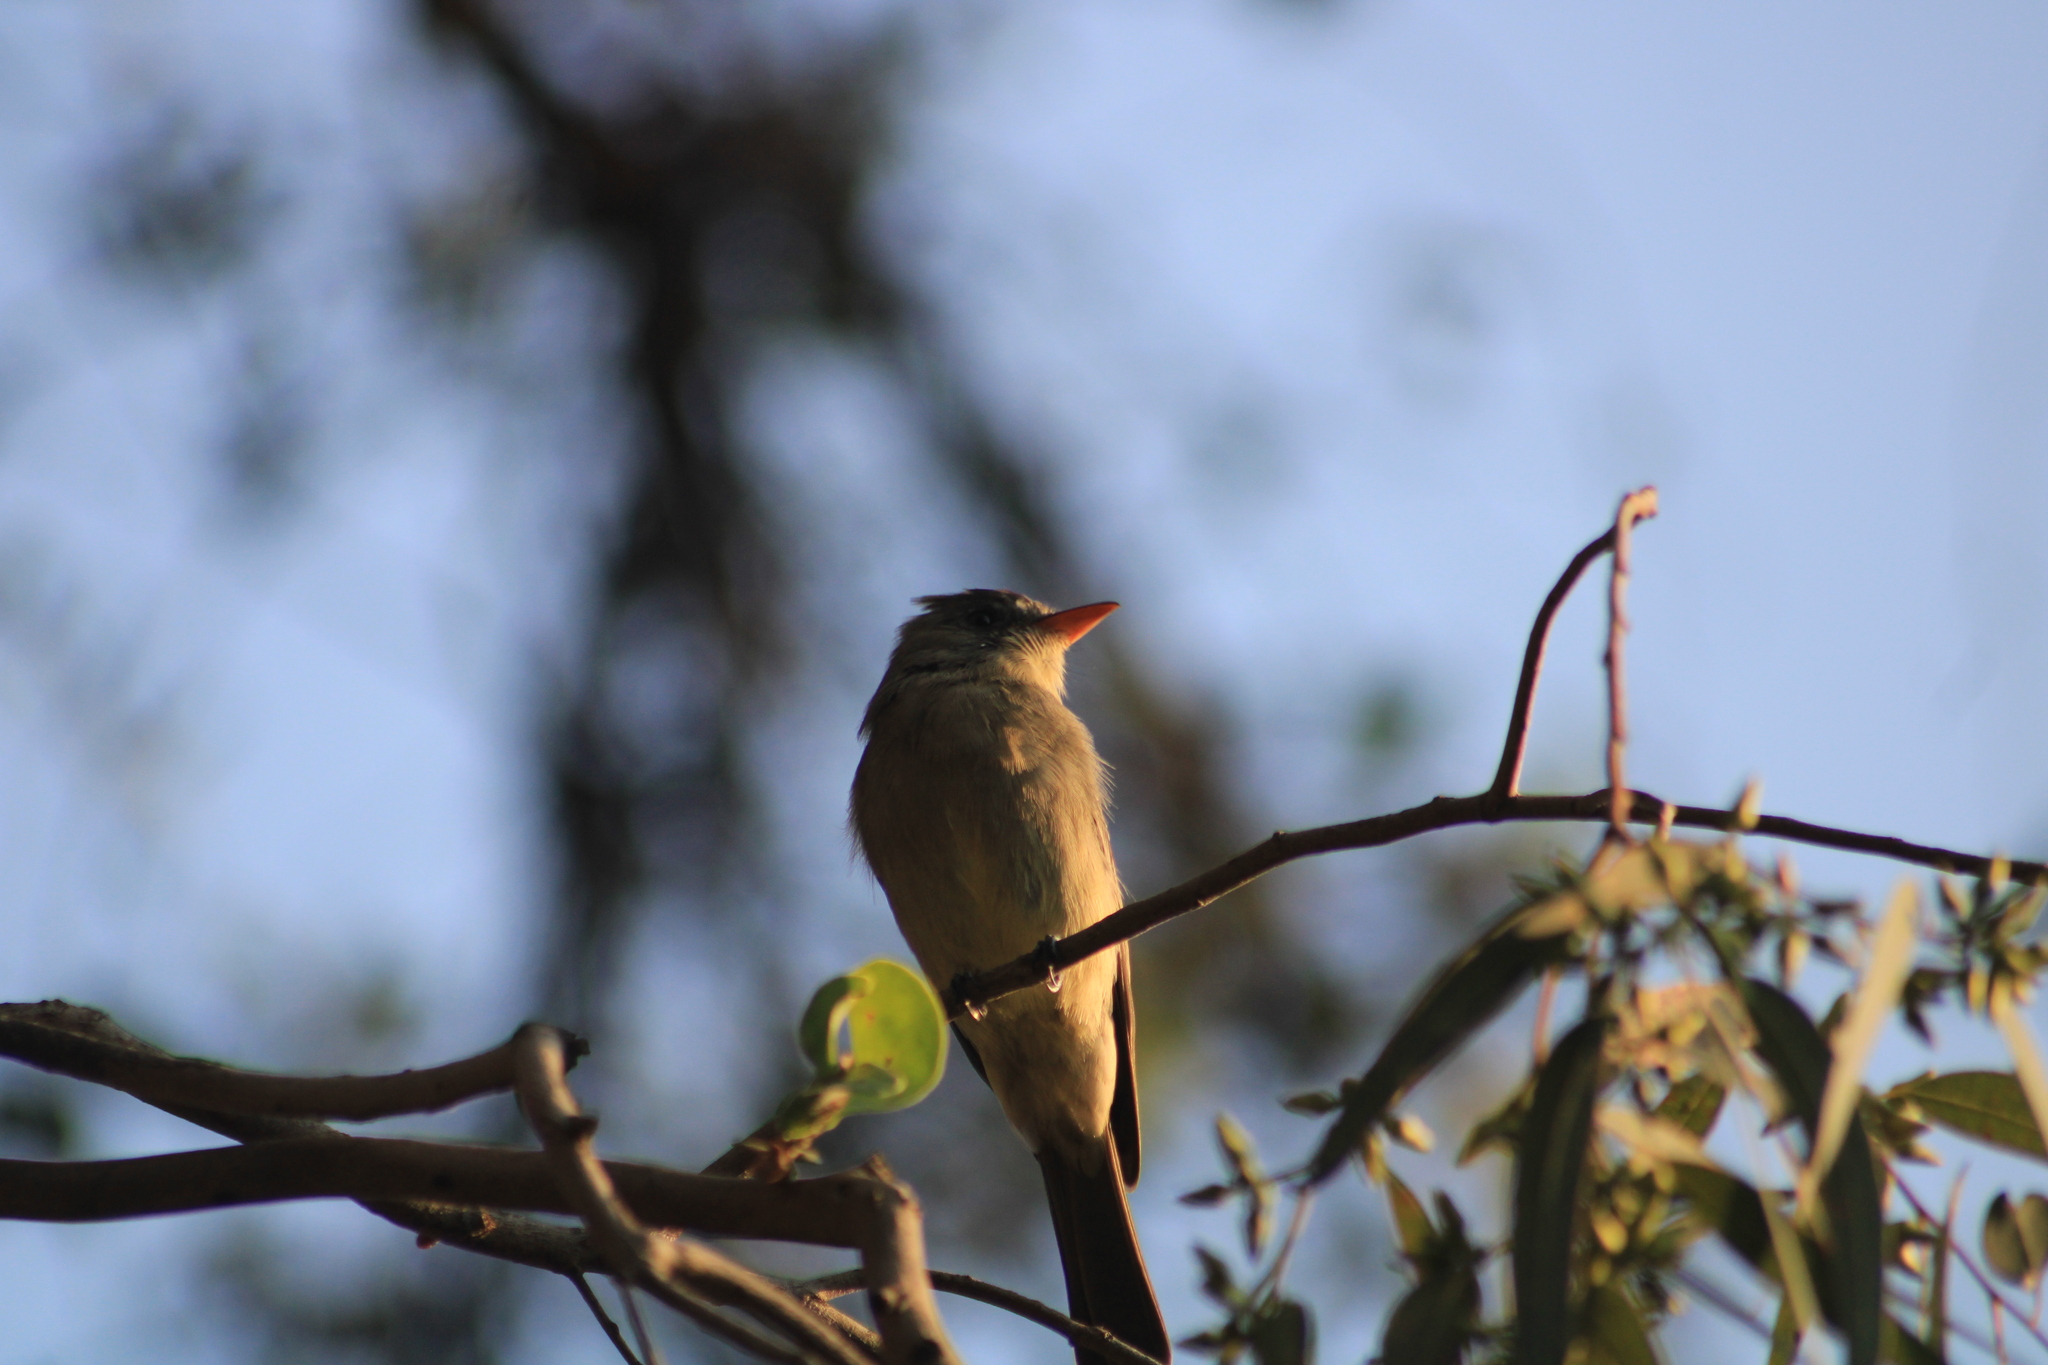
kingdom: Animalia
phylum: Chordata
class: Aves
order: Passeriformes
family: Tyrannidae
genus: Contopus
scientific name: Contopus pertinax
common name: Greater pewee
